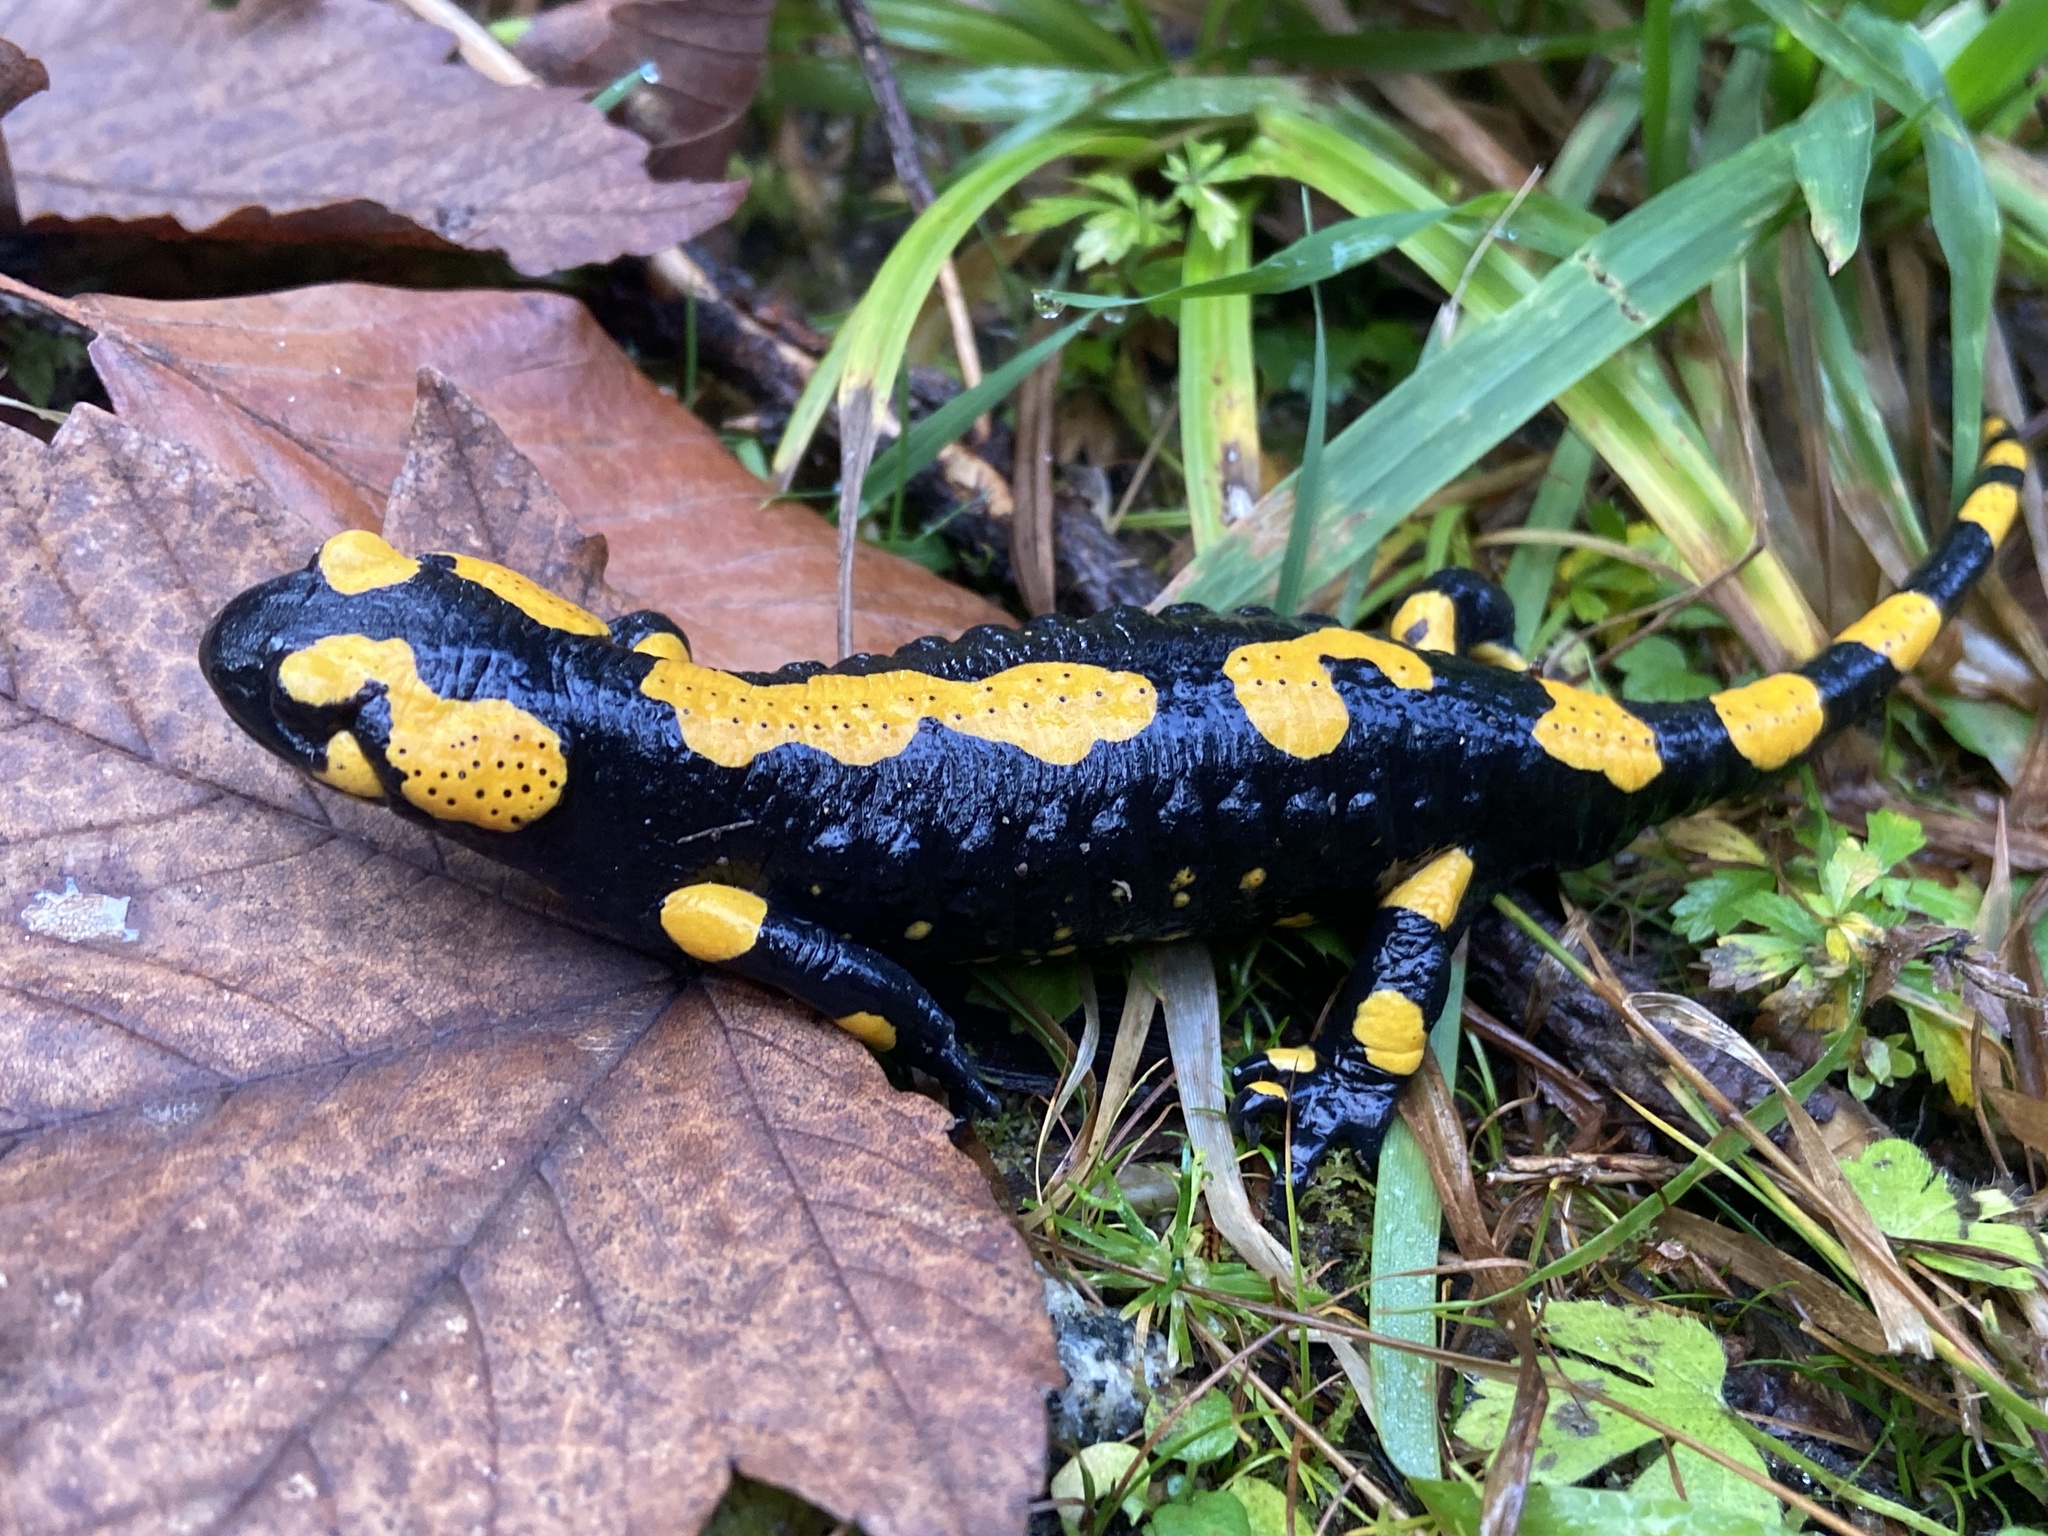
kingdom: Animalia
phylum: Chordata
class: Amphibia
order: Caudata
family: Salamandridae
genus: Salamandra
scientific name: Salamandra salamandra
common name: Fire salamander
